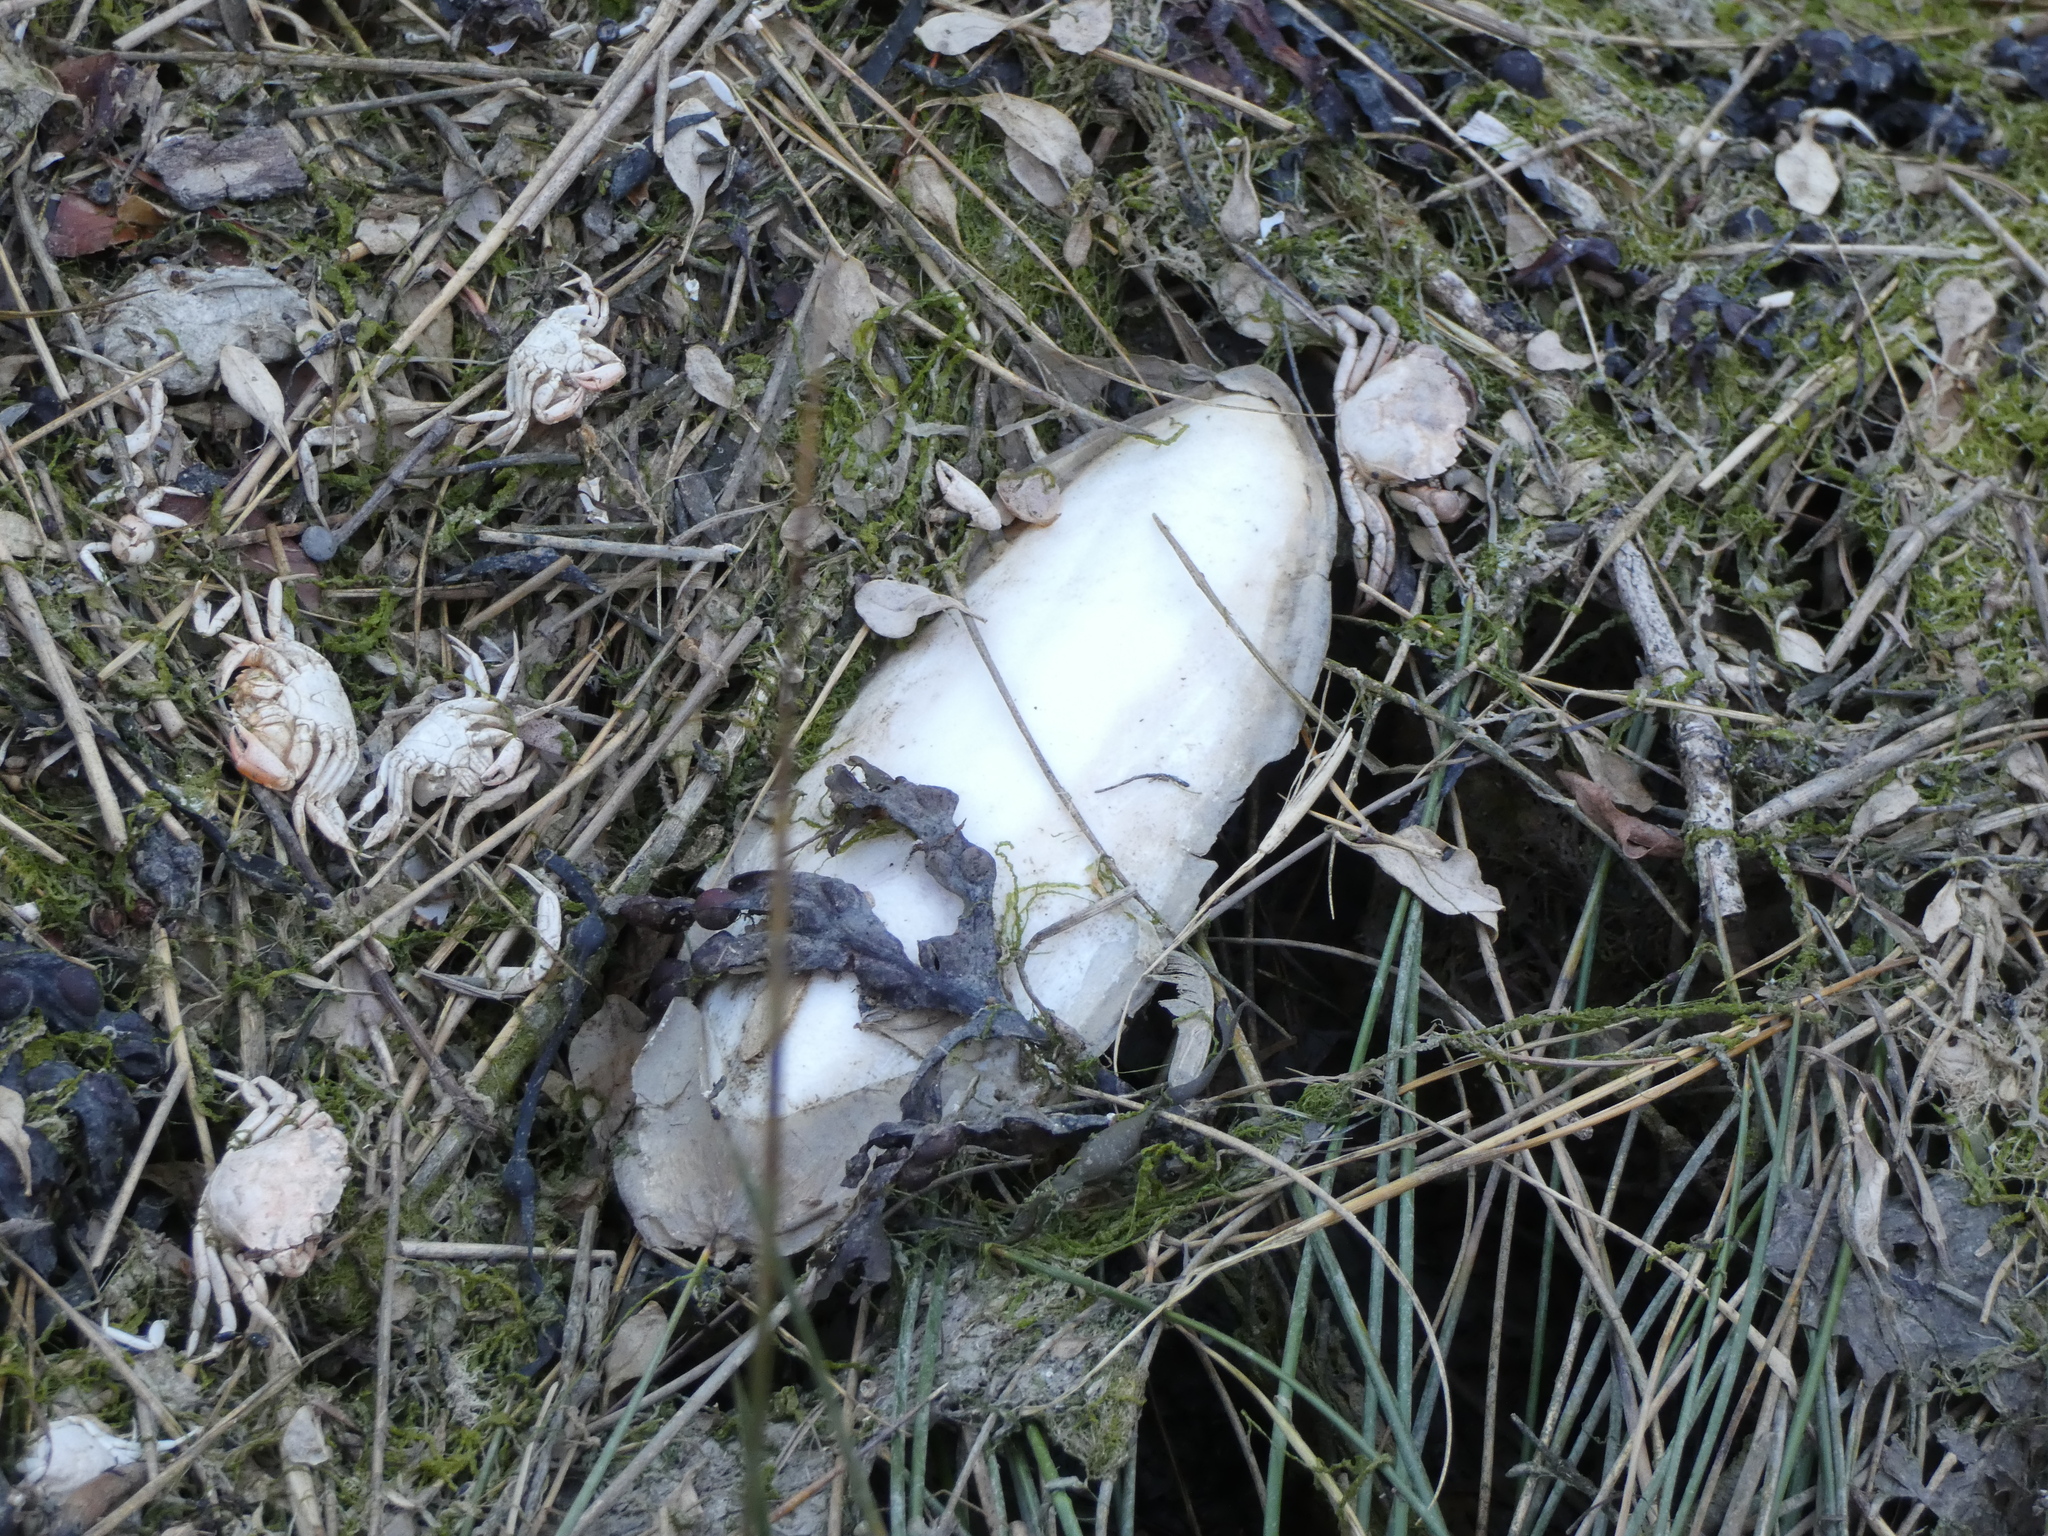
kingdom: Animalia
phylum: Mollusca
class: Cephalopoda
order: Sepiida
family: Sepiidae
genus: Sepia
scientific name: Sepia officinalis
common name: Common cuttlefish
